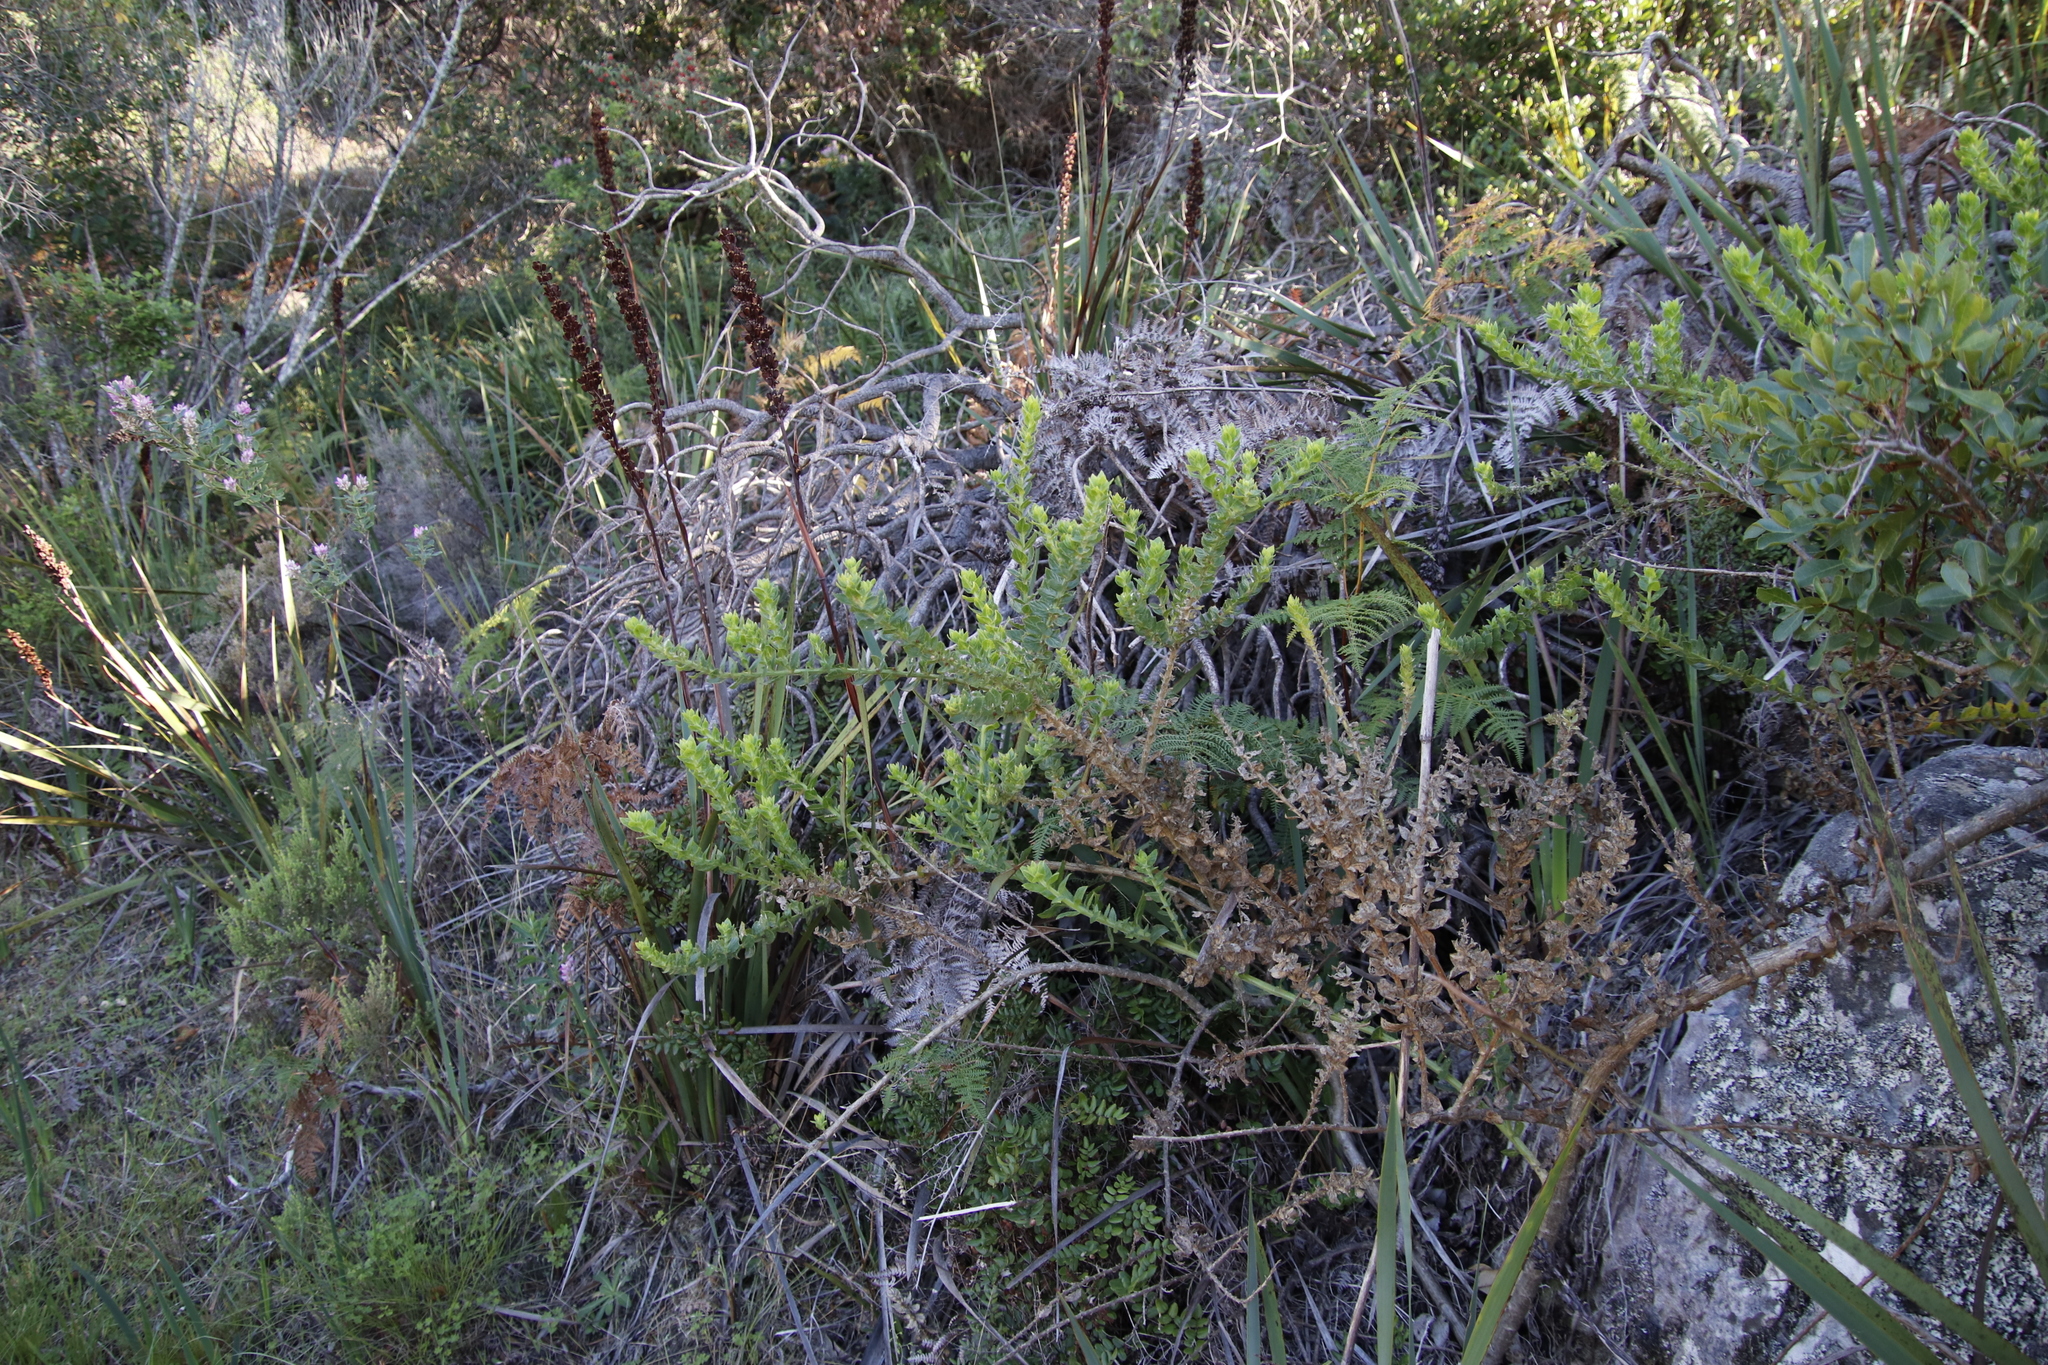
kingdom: Plantae
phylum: Tracheophyta
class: Magnoliopsida
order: Lamiales
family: Scrophulariaceae
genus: Oftia
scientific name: Oftia africana
